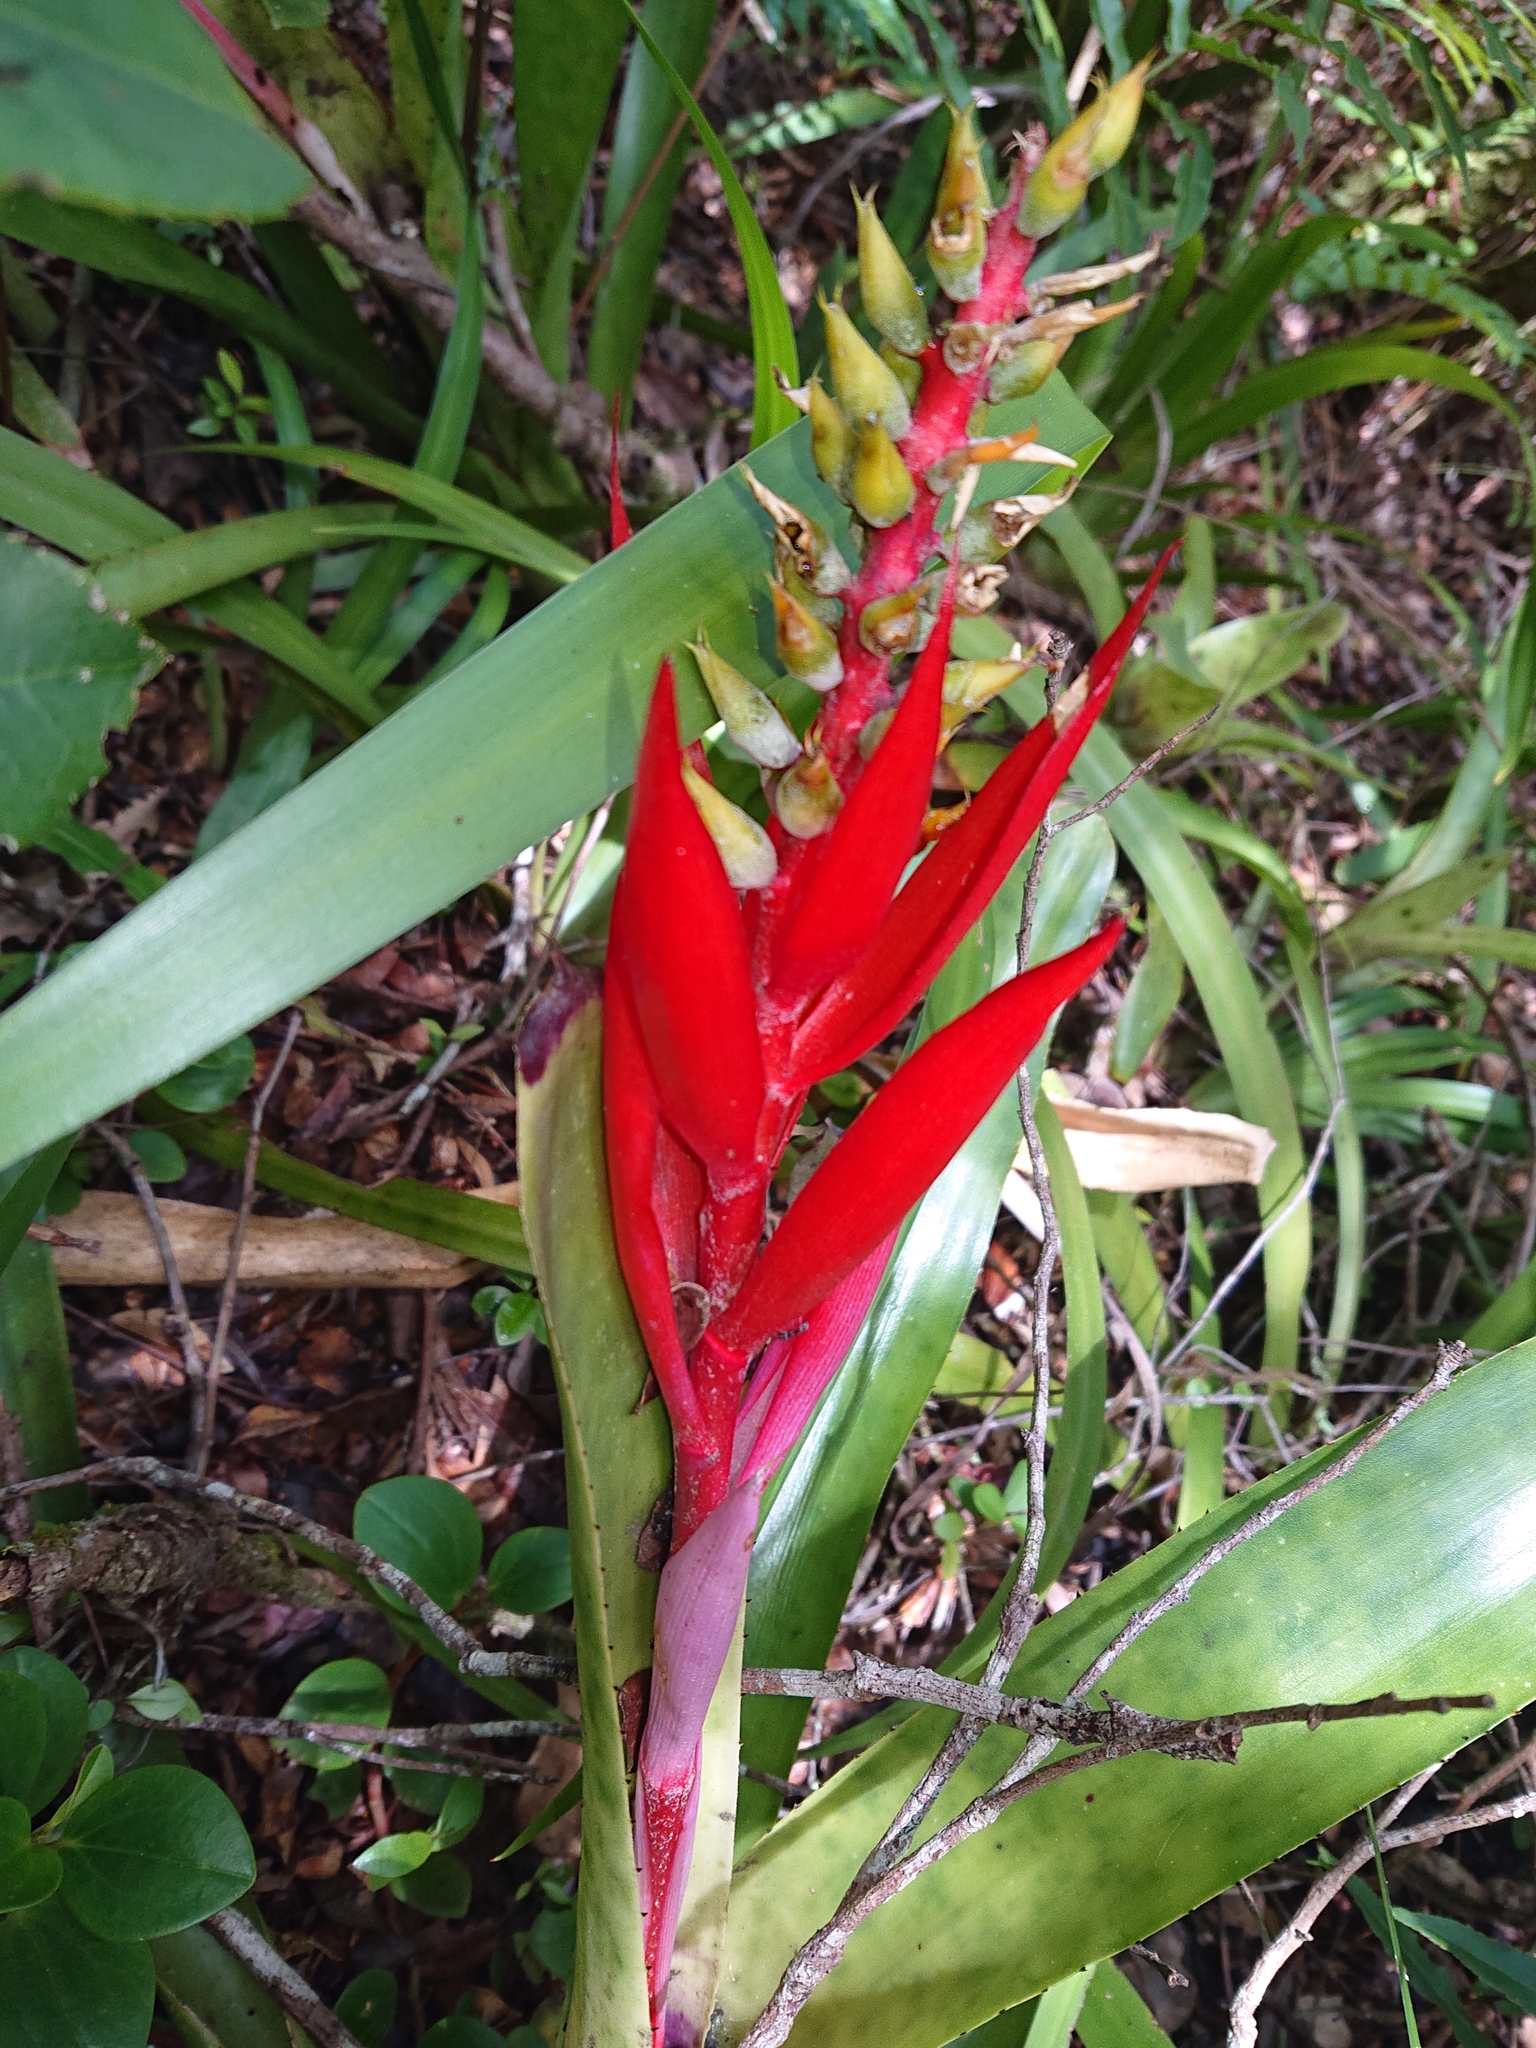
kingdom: Plantae
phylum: Tracheophyta
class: Liliopsida
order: Poales
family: Bromeliaceae
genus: Aechmea
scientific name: Aechmea nudicaulis
